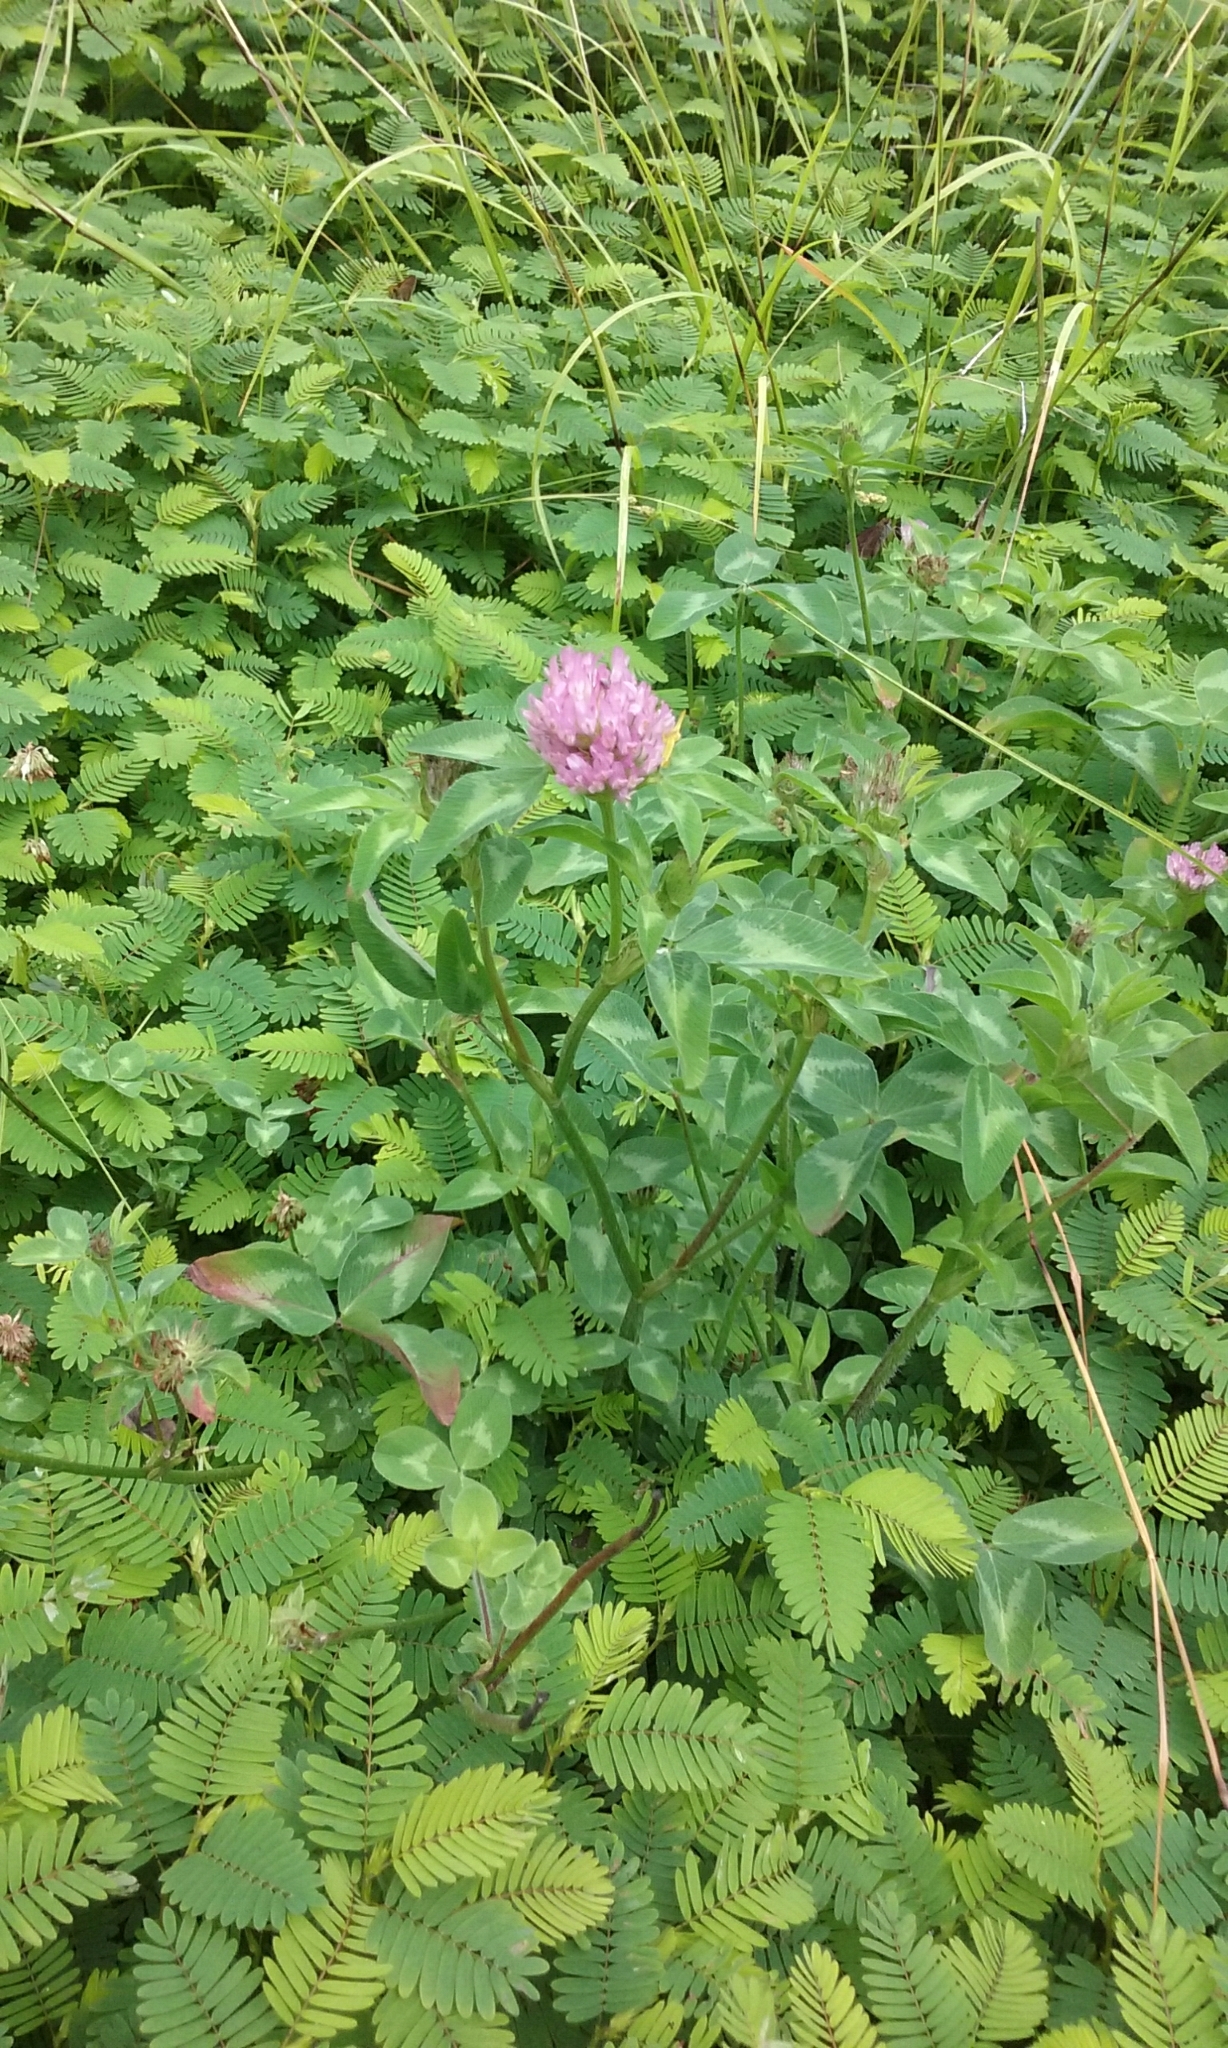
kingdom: Plantae
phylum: Tracheophyta
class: Magnoliopsida
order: Fabales
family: Fabaceae
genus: Trifolium
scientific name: Trifolium pratense
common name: Red clover
